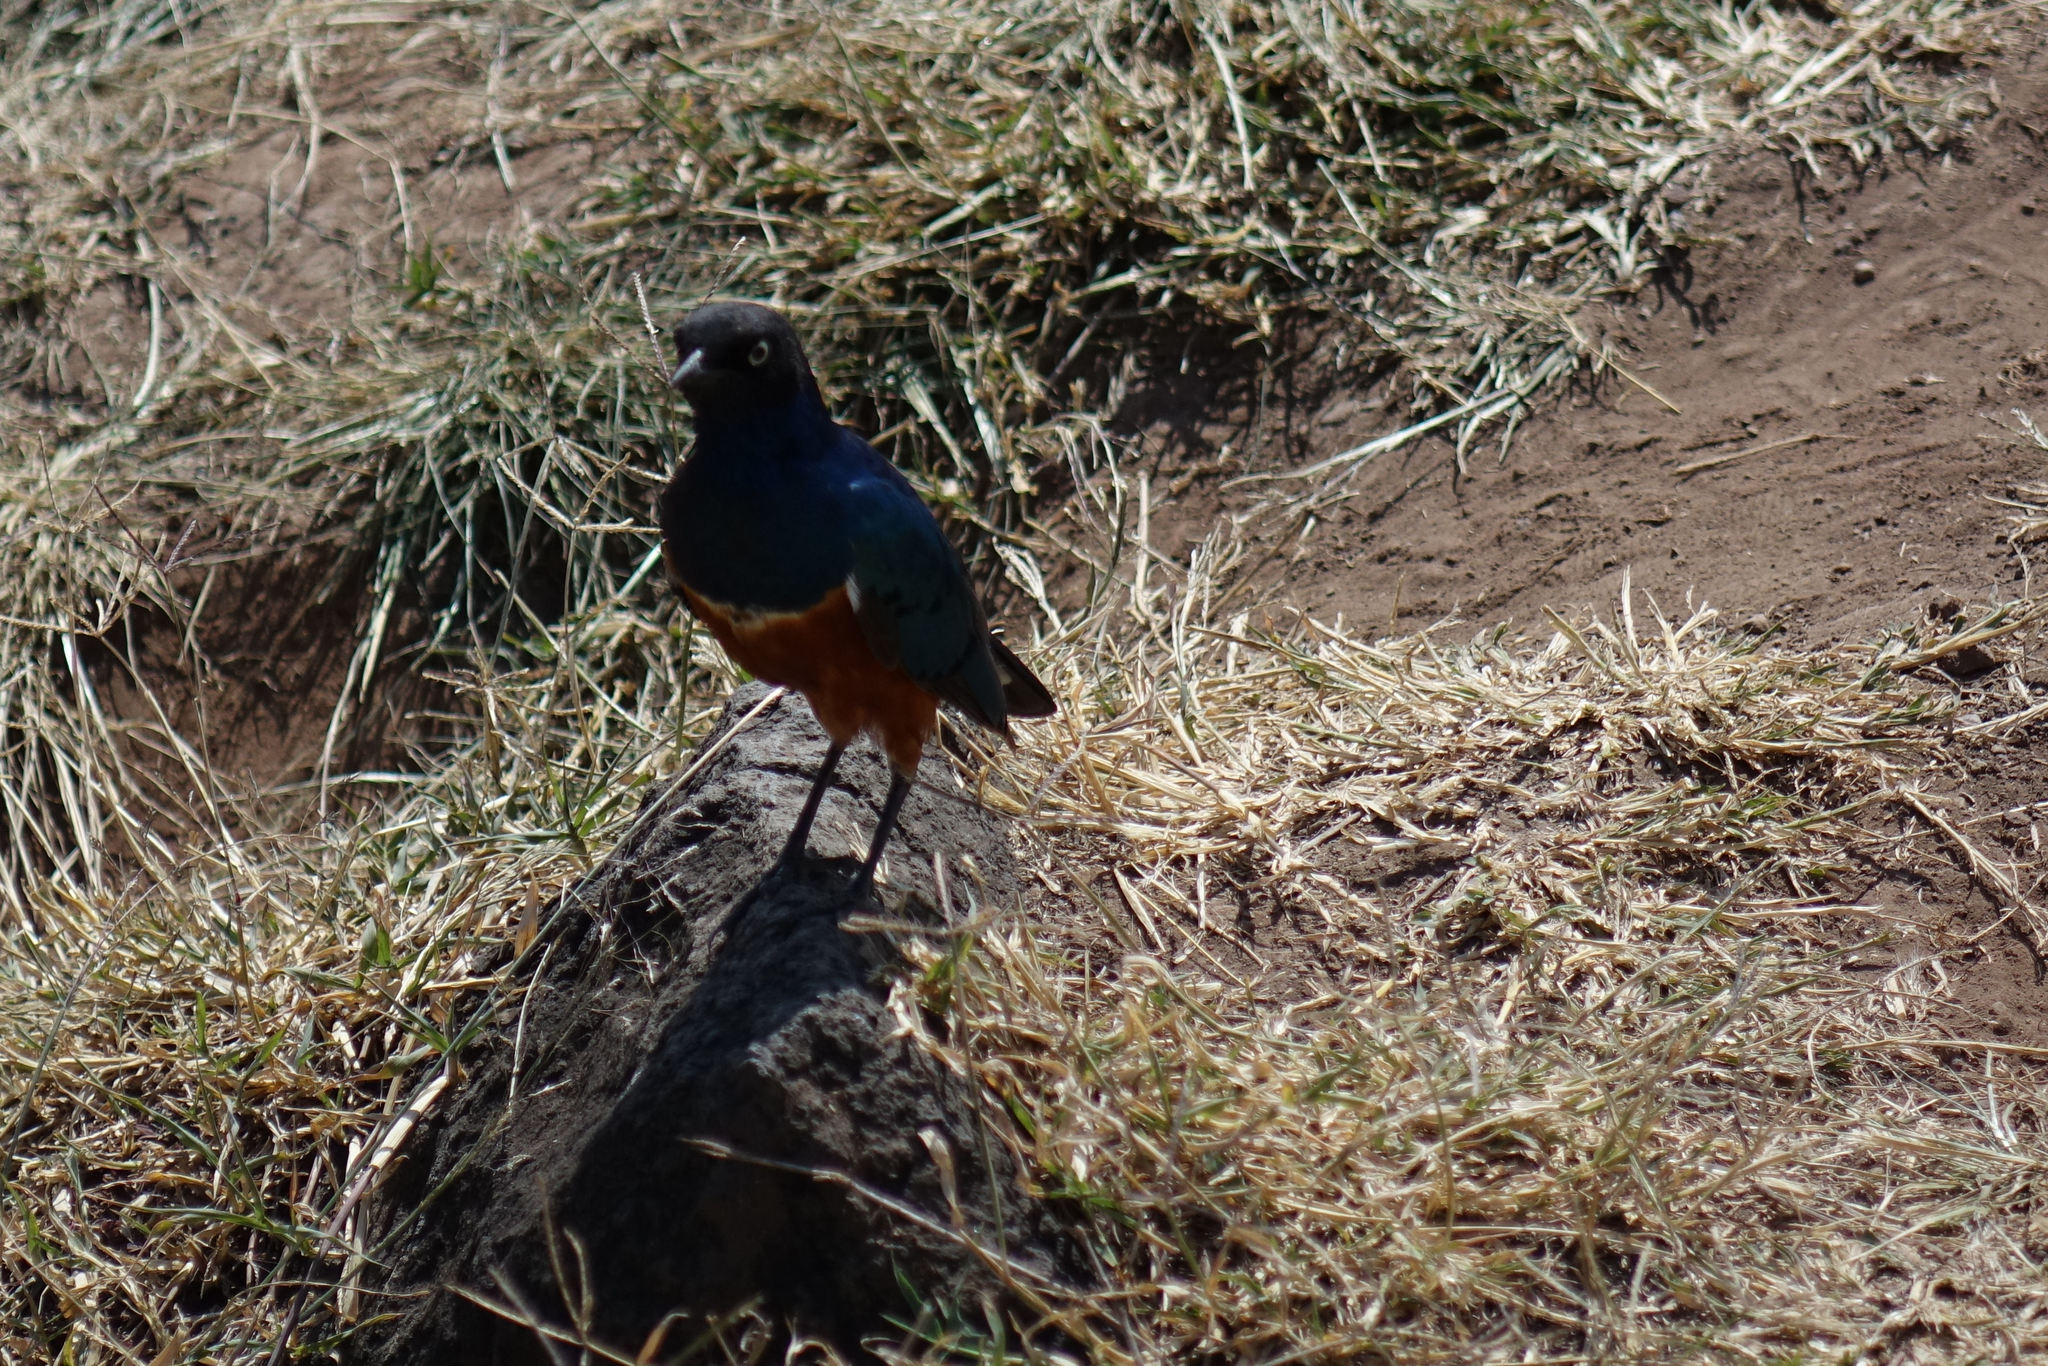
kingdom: Animalia
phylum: Chordata
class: Aves
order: Passeriformes
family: Sturnidae
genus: Lamprotornis
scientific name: Lamprotornis superbus
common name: Superb starling
